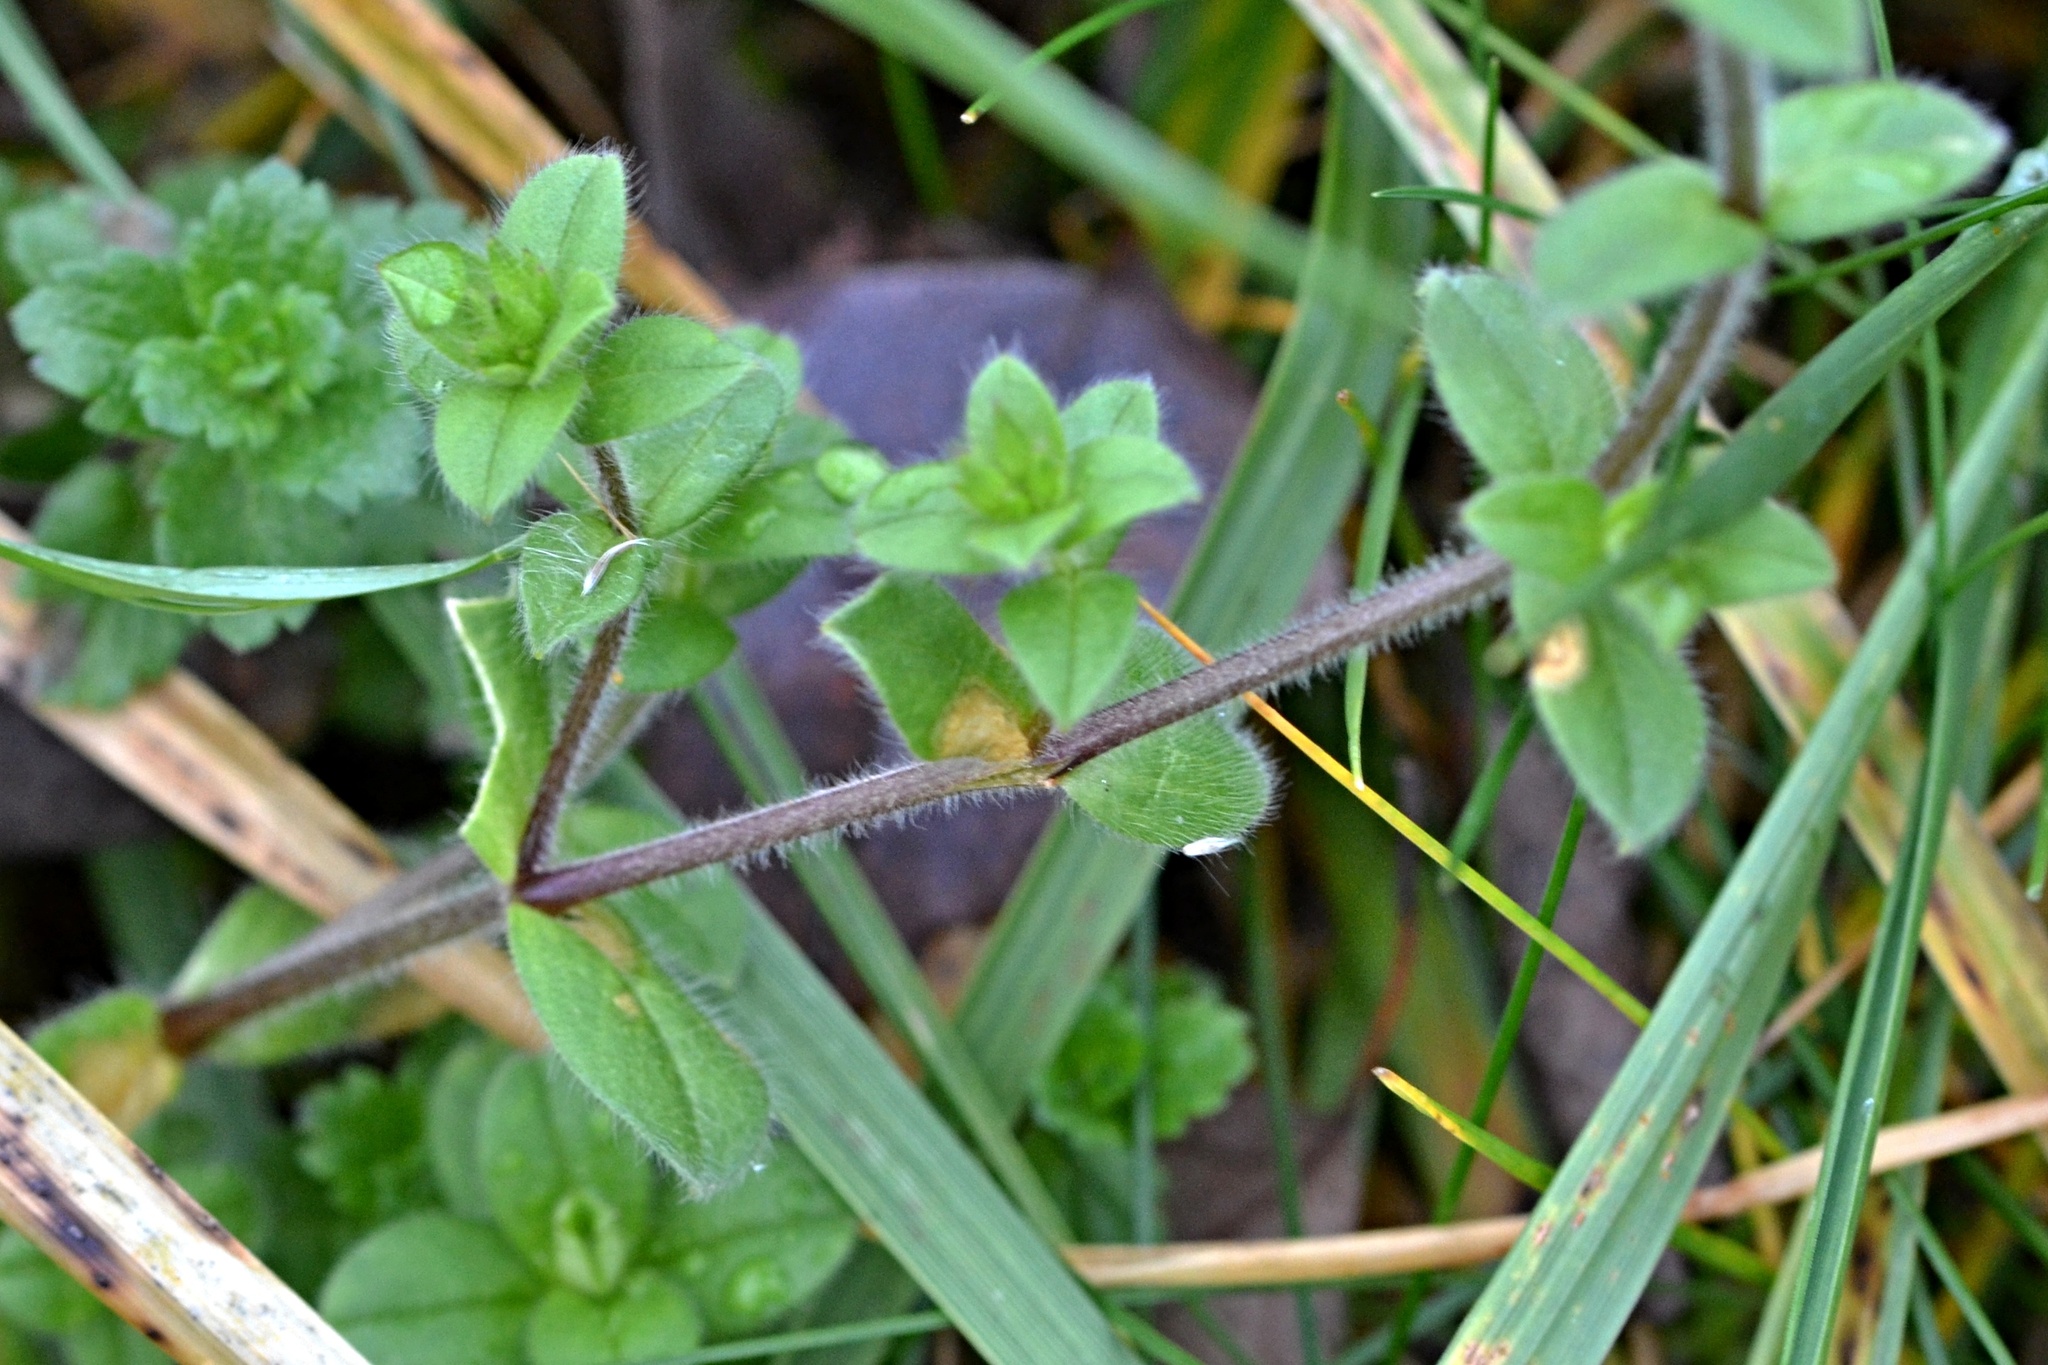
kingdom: Plantae
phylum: Tracheophyta
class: Magnoliopsida
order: Caryophyllales
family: Caryophyllaceae
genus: Cerastium
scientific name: Cerastium glomeratum
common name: Sticky chickweed
